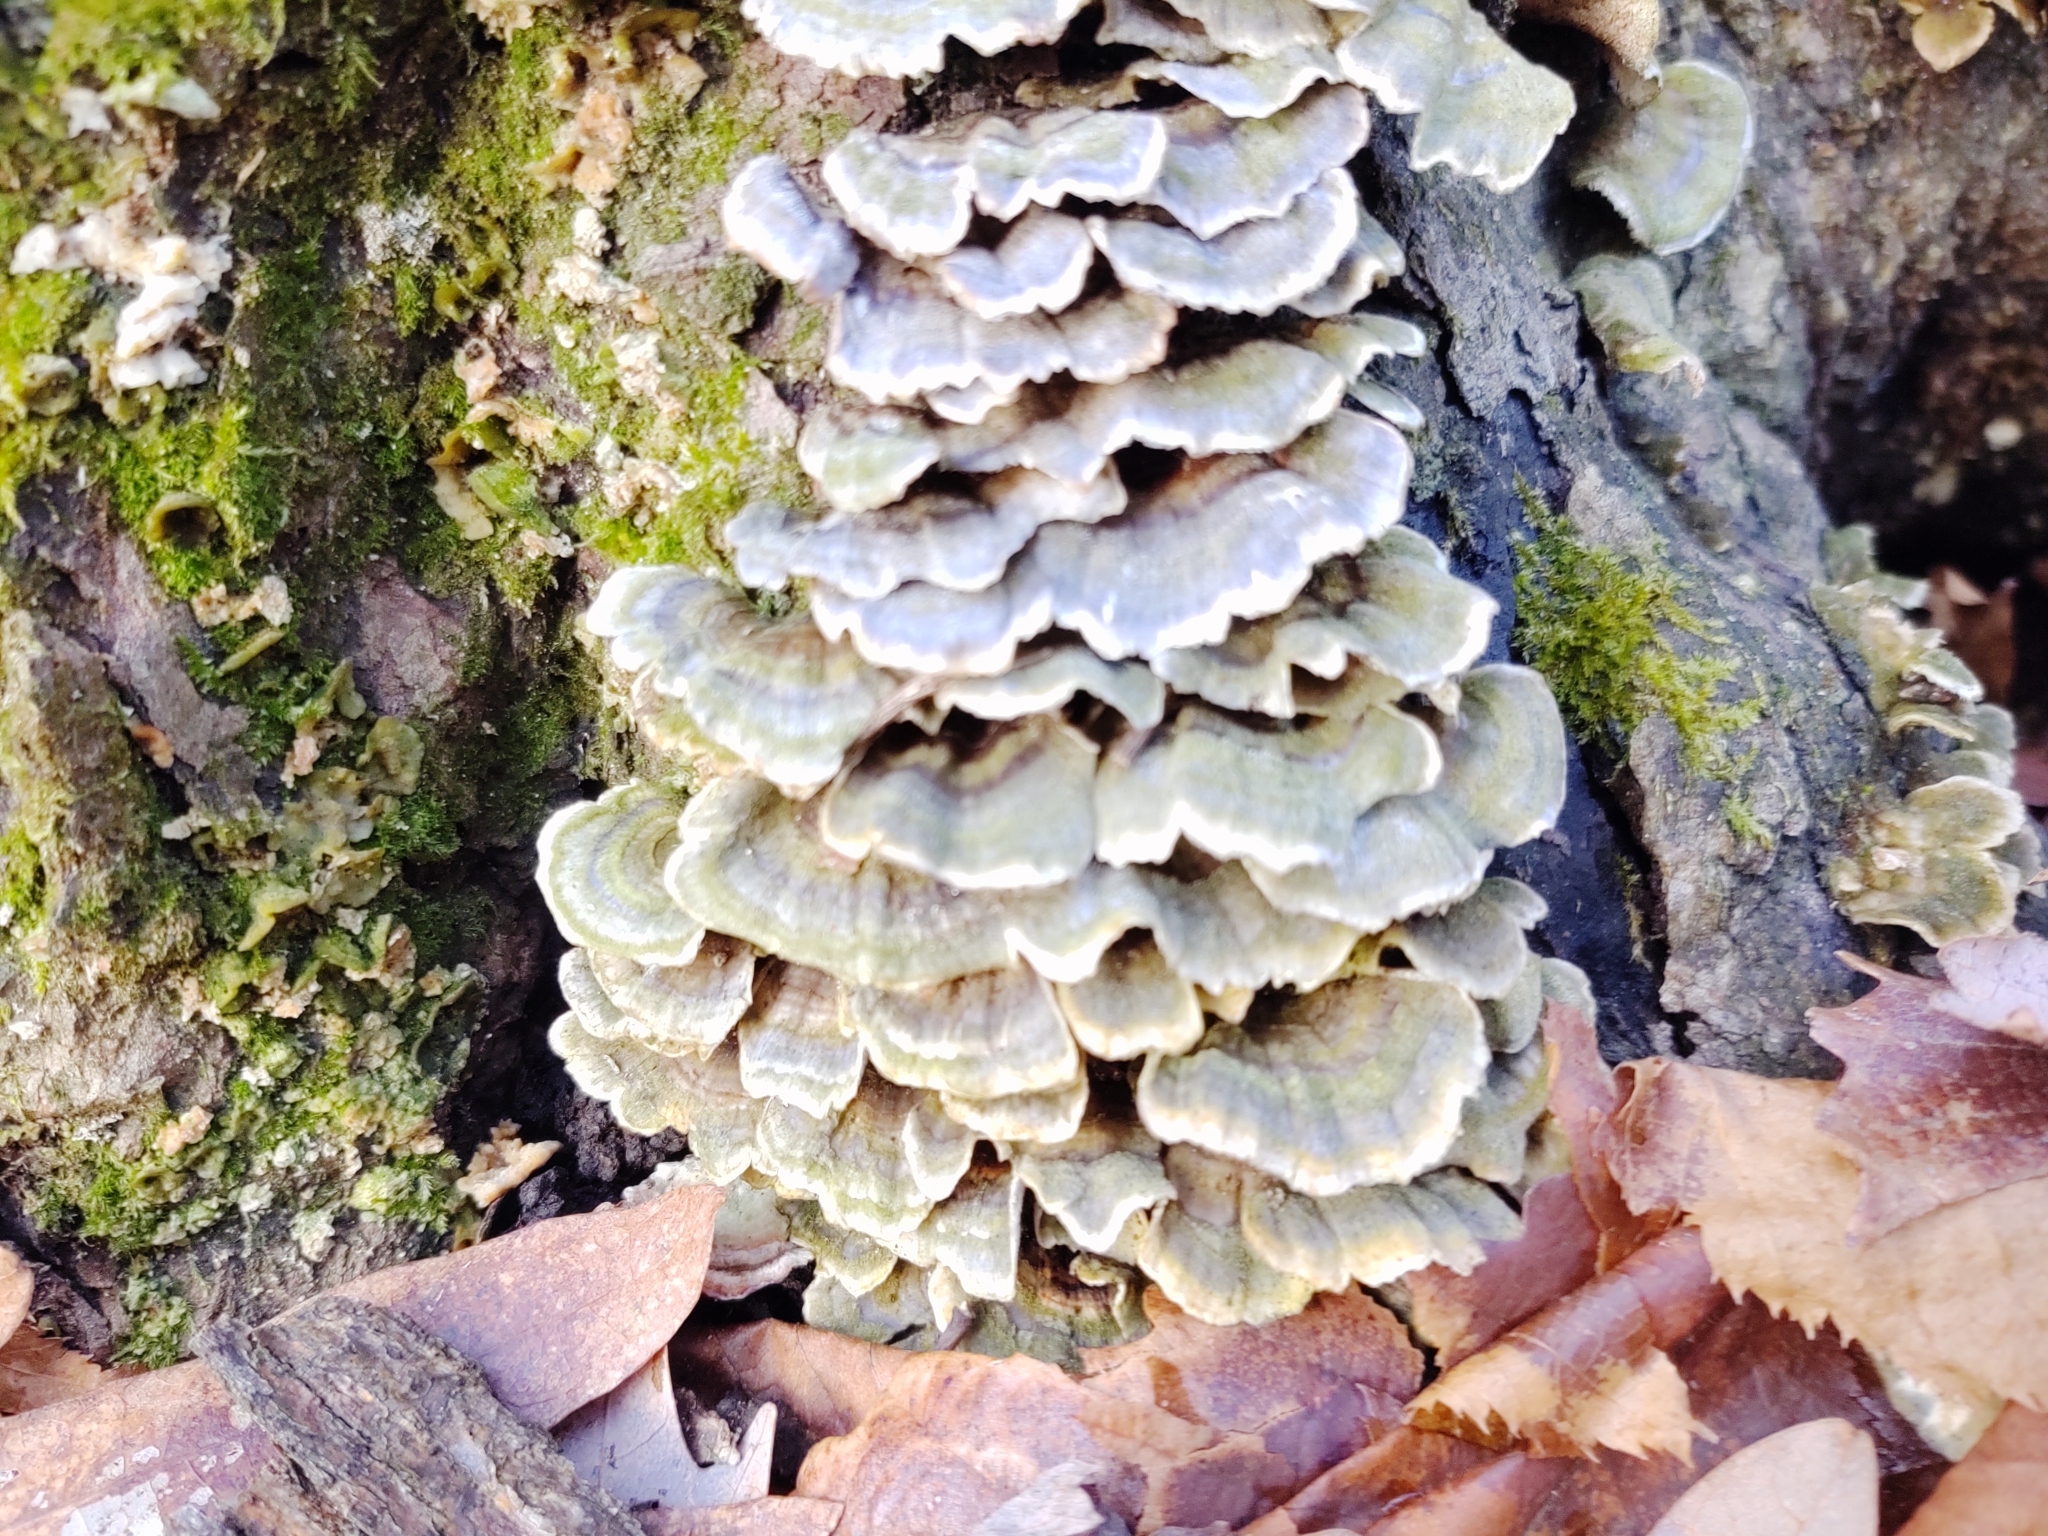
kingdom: Fungi
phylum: Basidiomycota
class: Agaricomycetes
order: Polyporales
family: Polyporaceae
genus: Trametes
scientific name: Trametes versicolor
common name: Turkeytail
